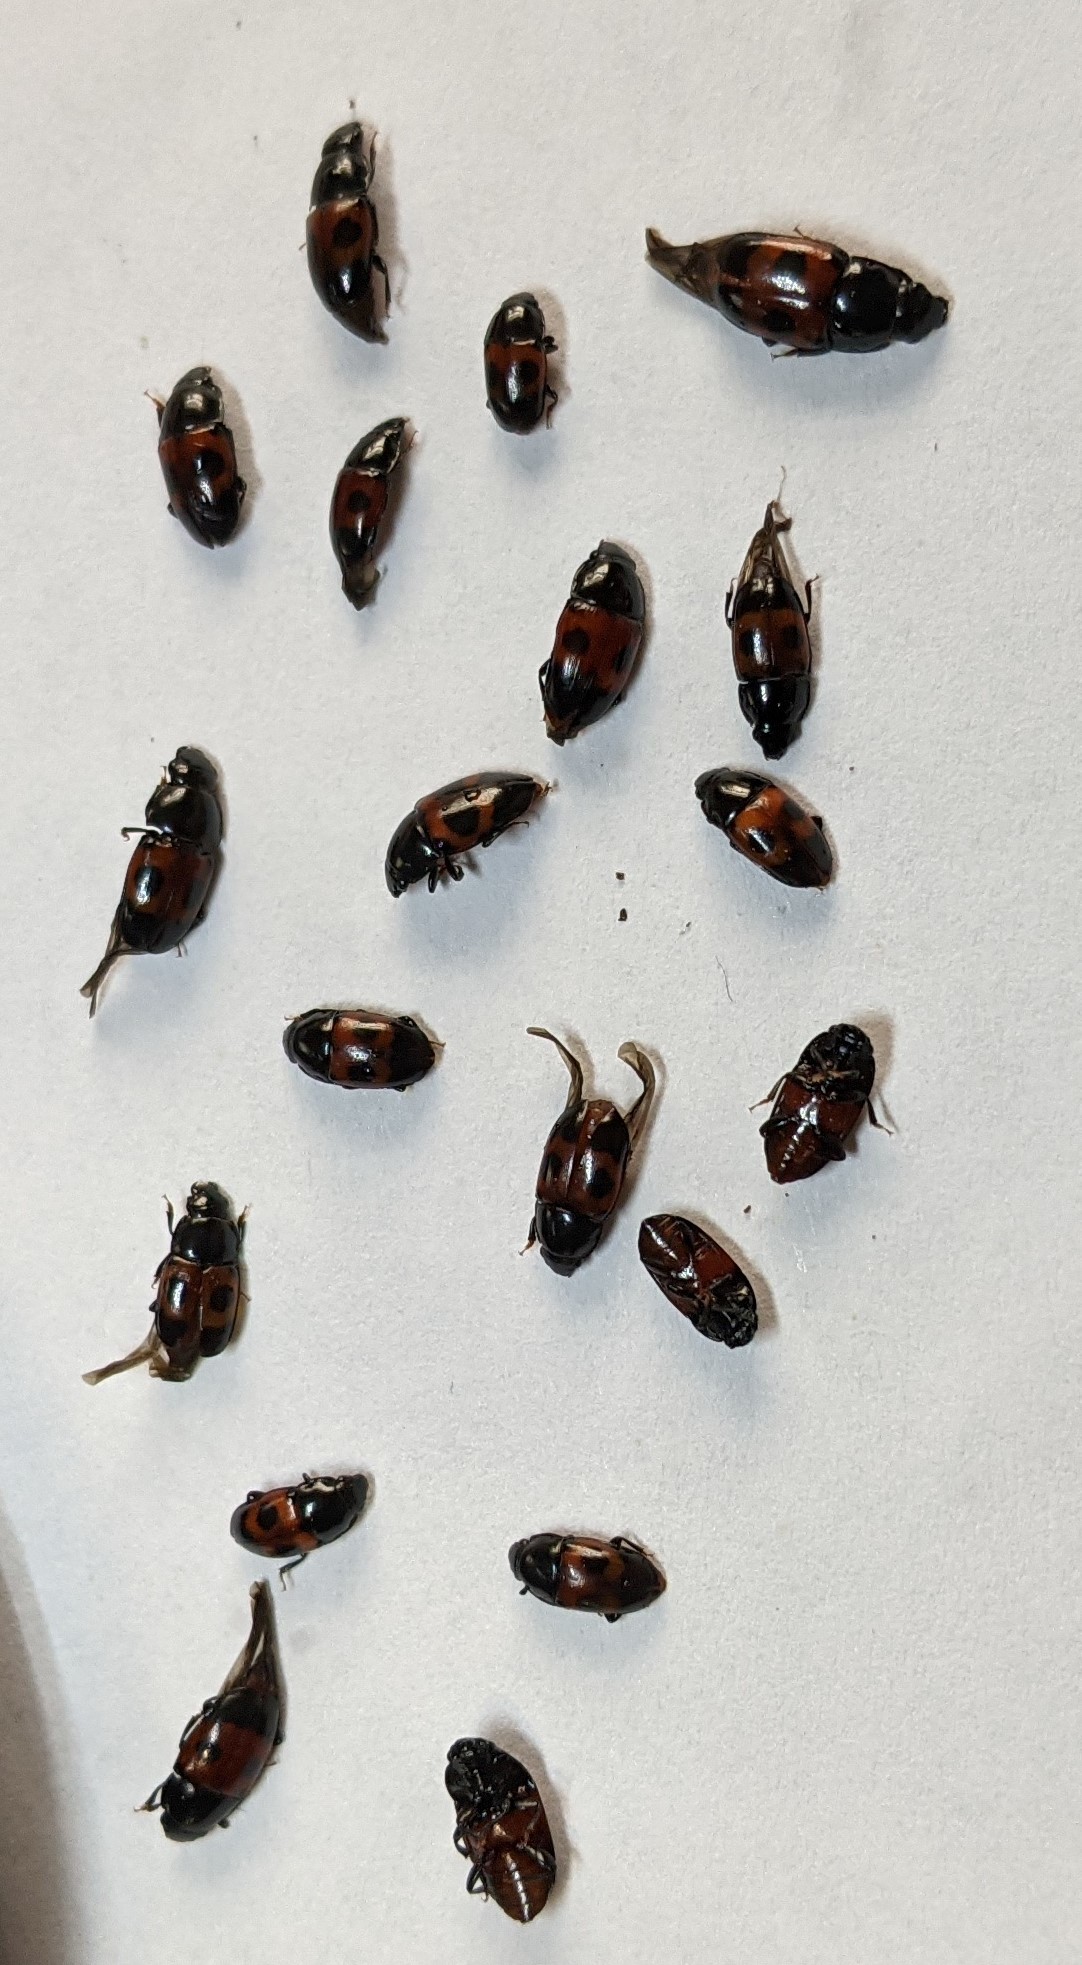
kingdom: Animalia
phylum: Arthropoda
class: Insecta
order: Coleoptera
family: Nitidulidae
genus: Glischrochilus
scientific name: Glischrochilus sanguinolentus
